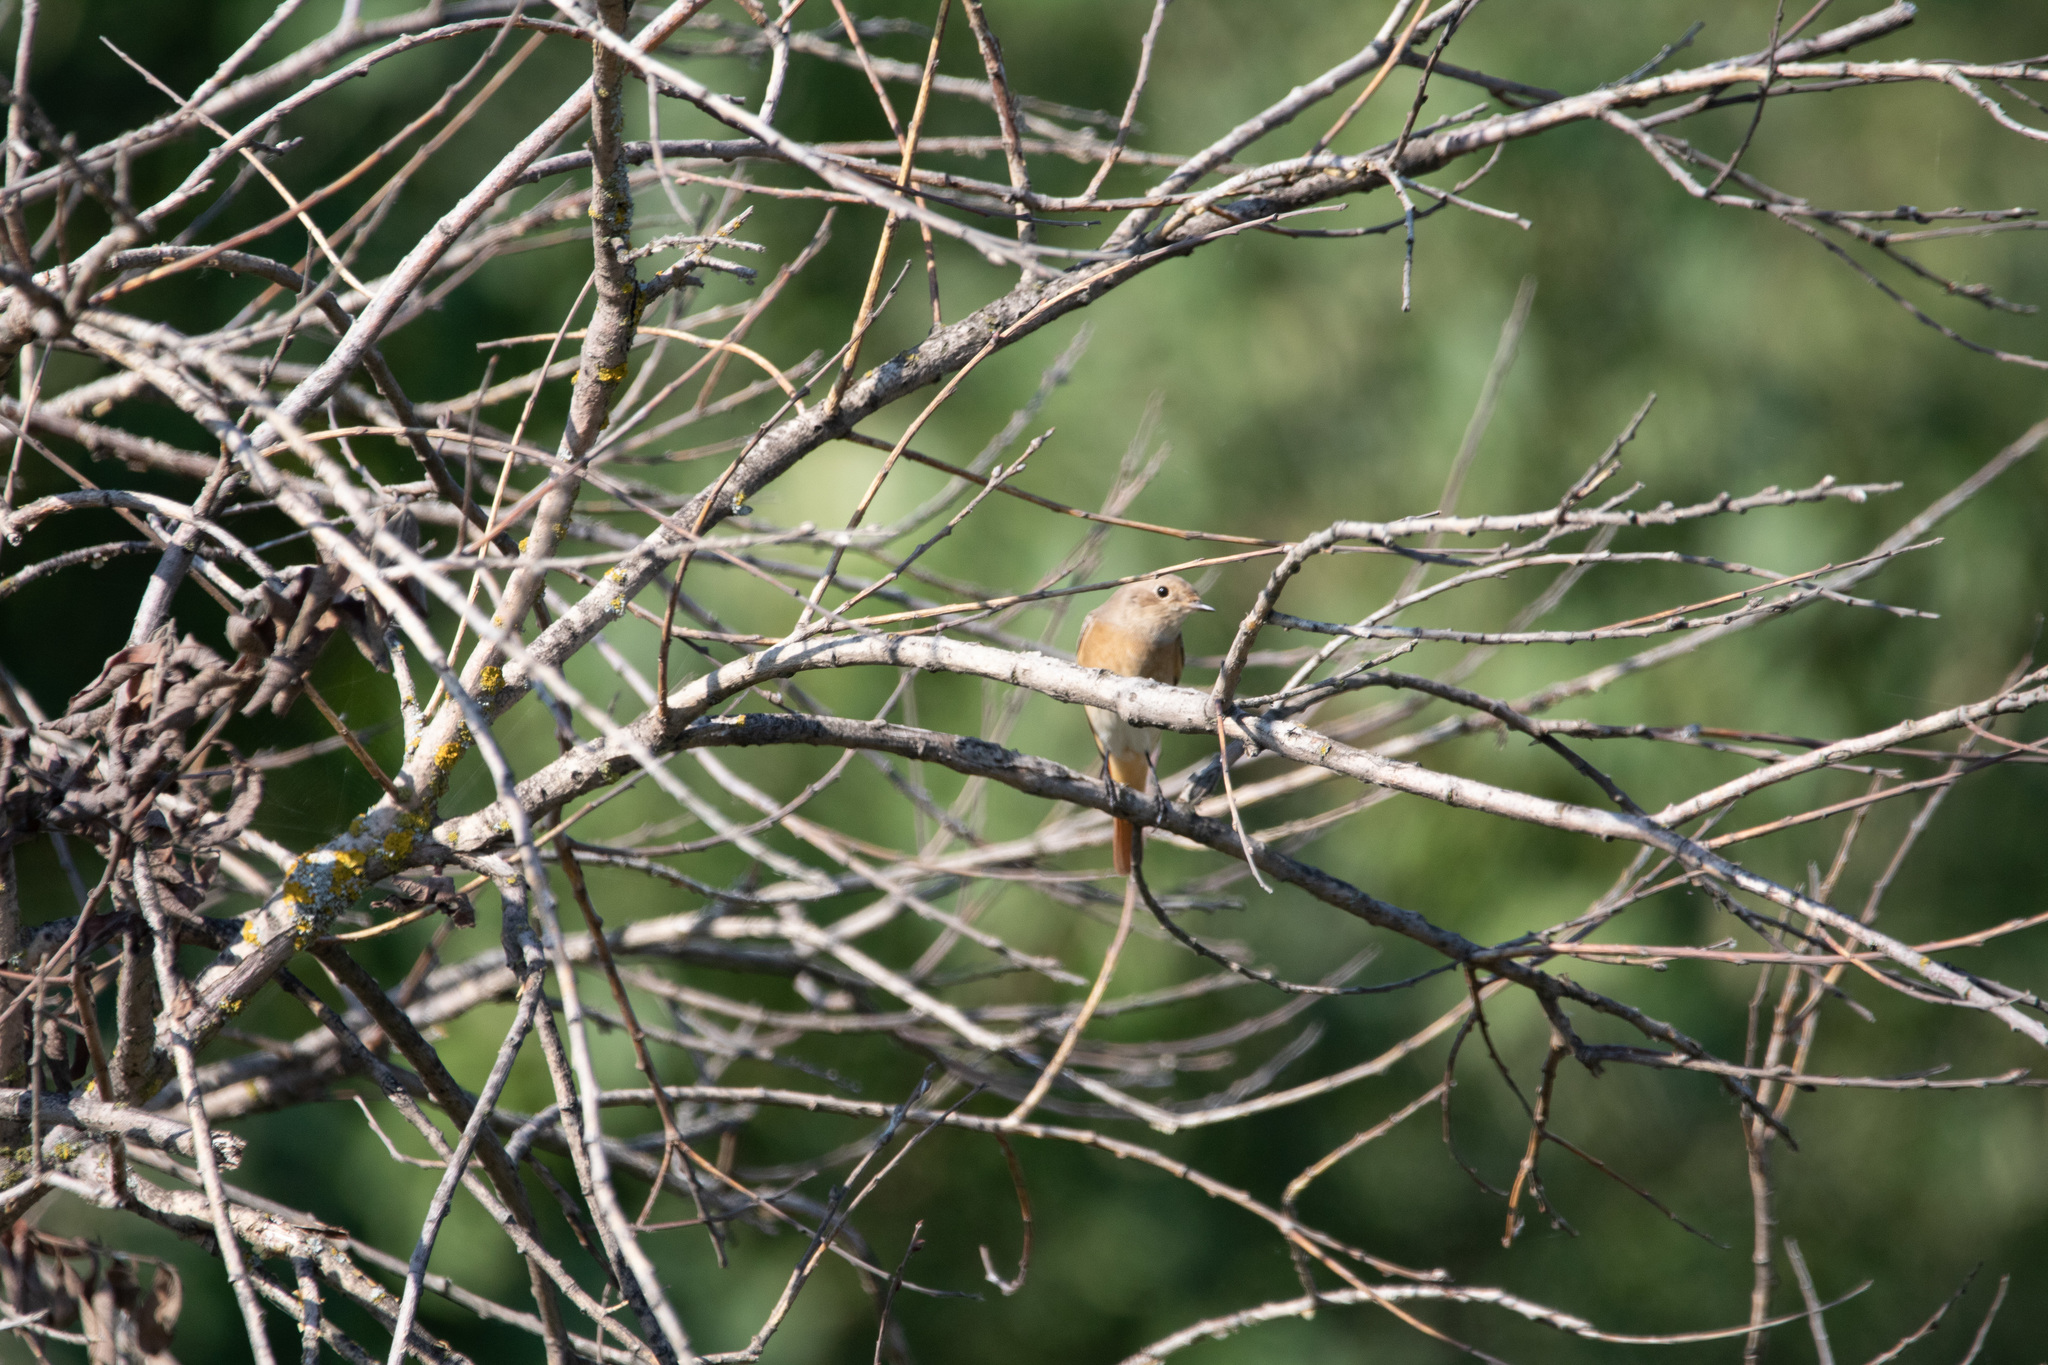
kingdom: Animalia
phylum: Chordata
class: Aves
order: Passeriformes
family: Muscicapidae
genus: Phoenicurus
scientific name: Phoenicurus phoenicurus
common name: Common redstart
